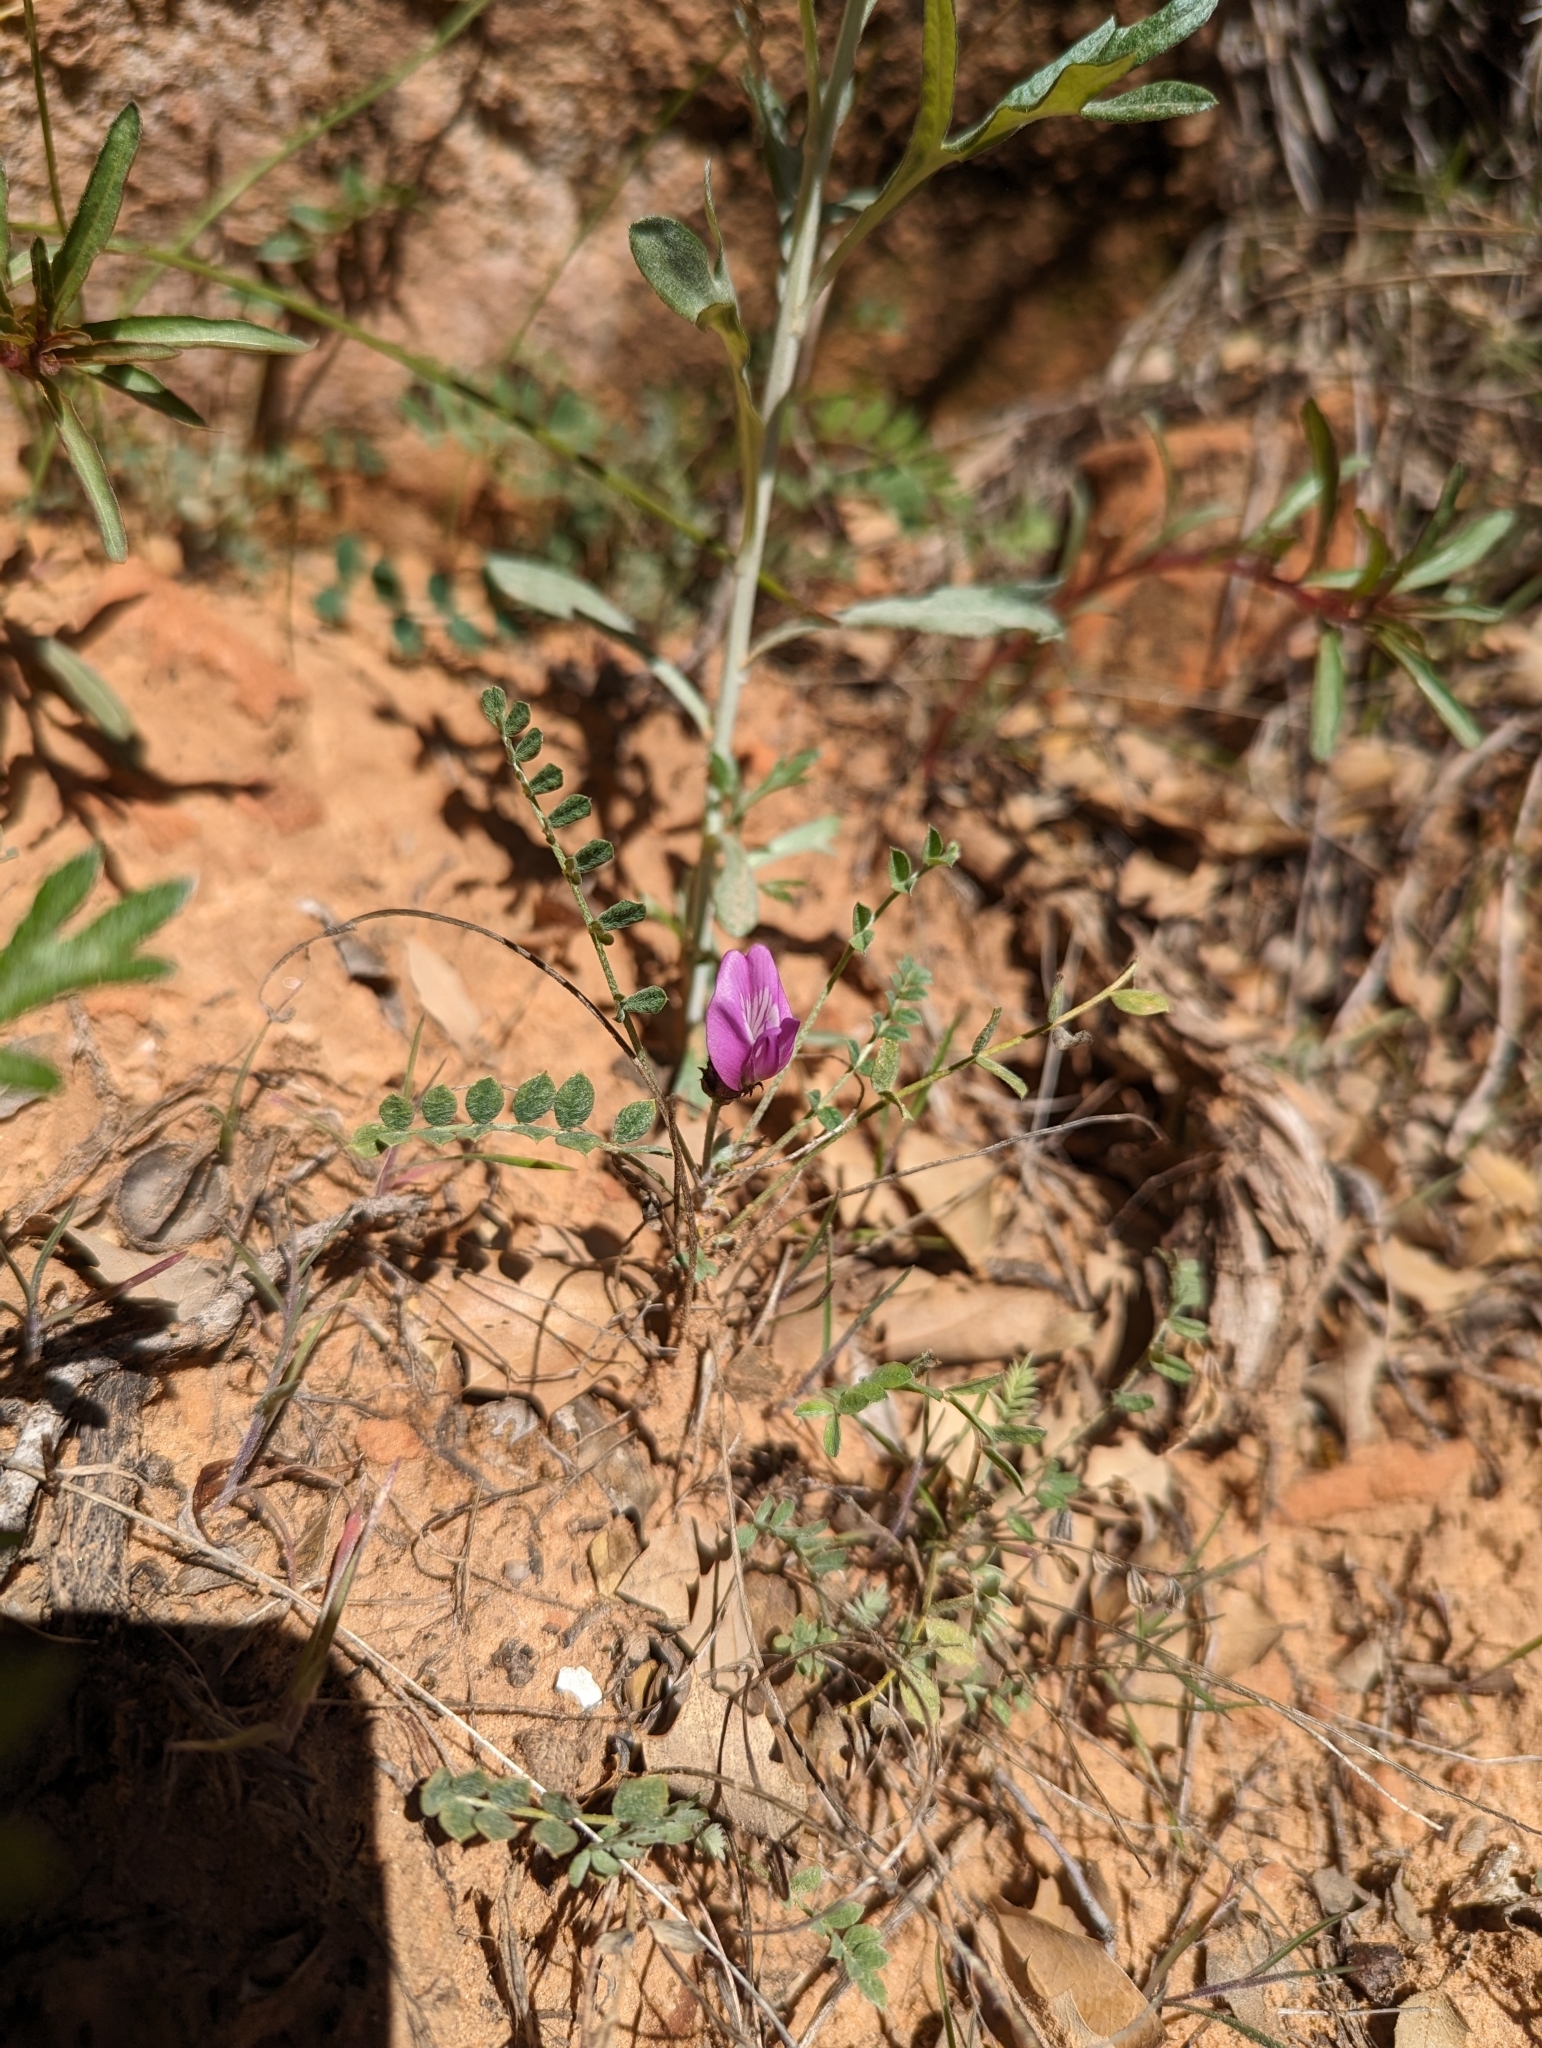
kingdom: Plantae
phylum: Tracheophyta
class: Magnoliopsida
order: Fabales
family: Fabaceae
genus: Astragalus
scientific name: Astragalus zionis
